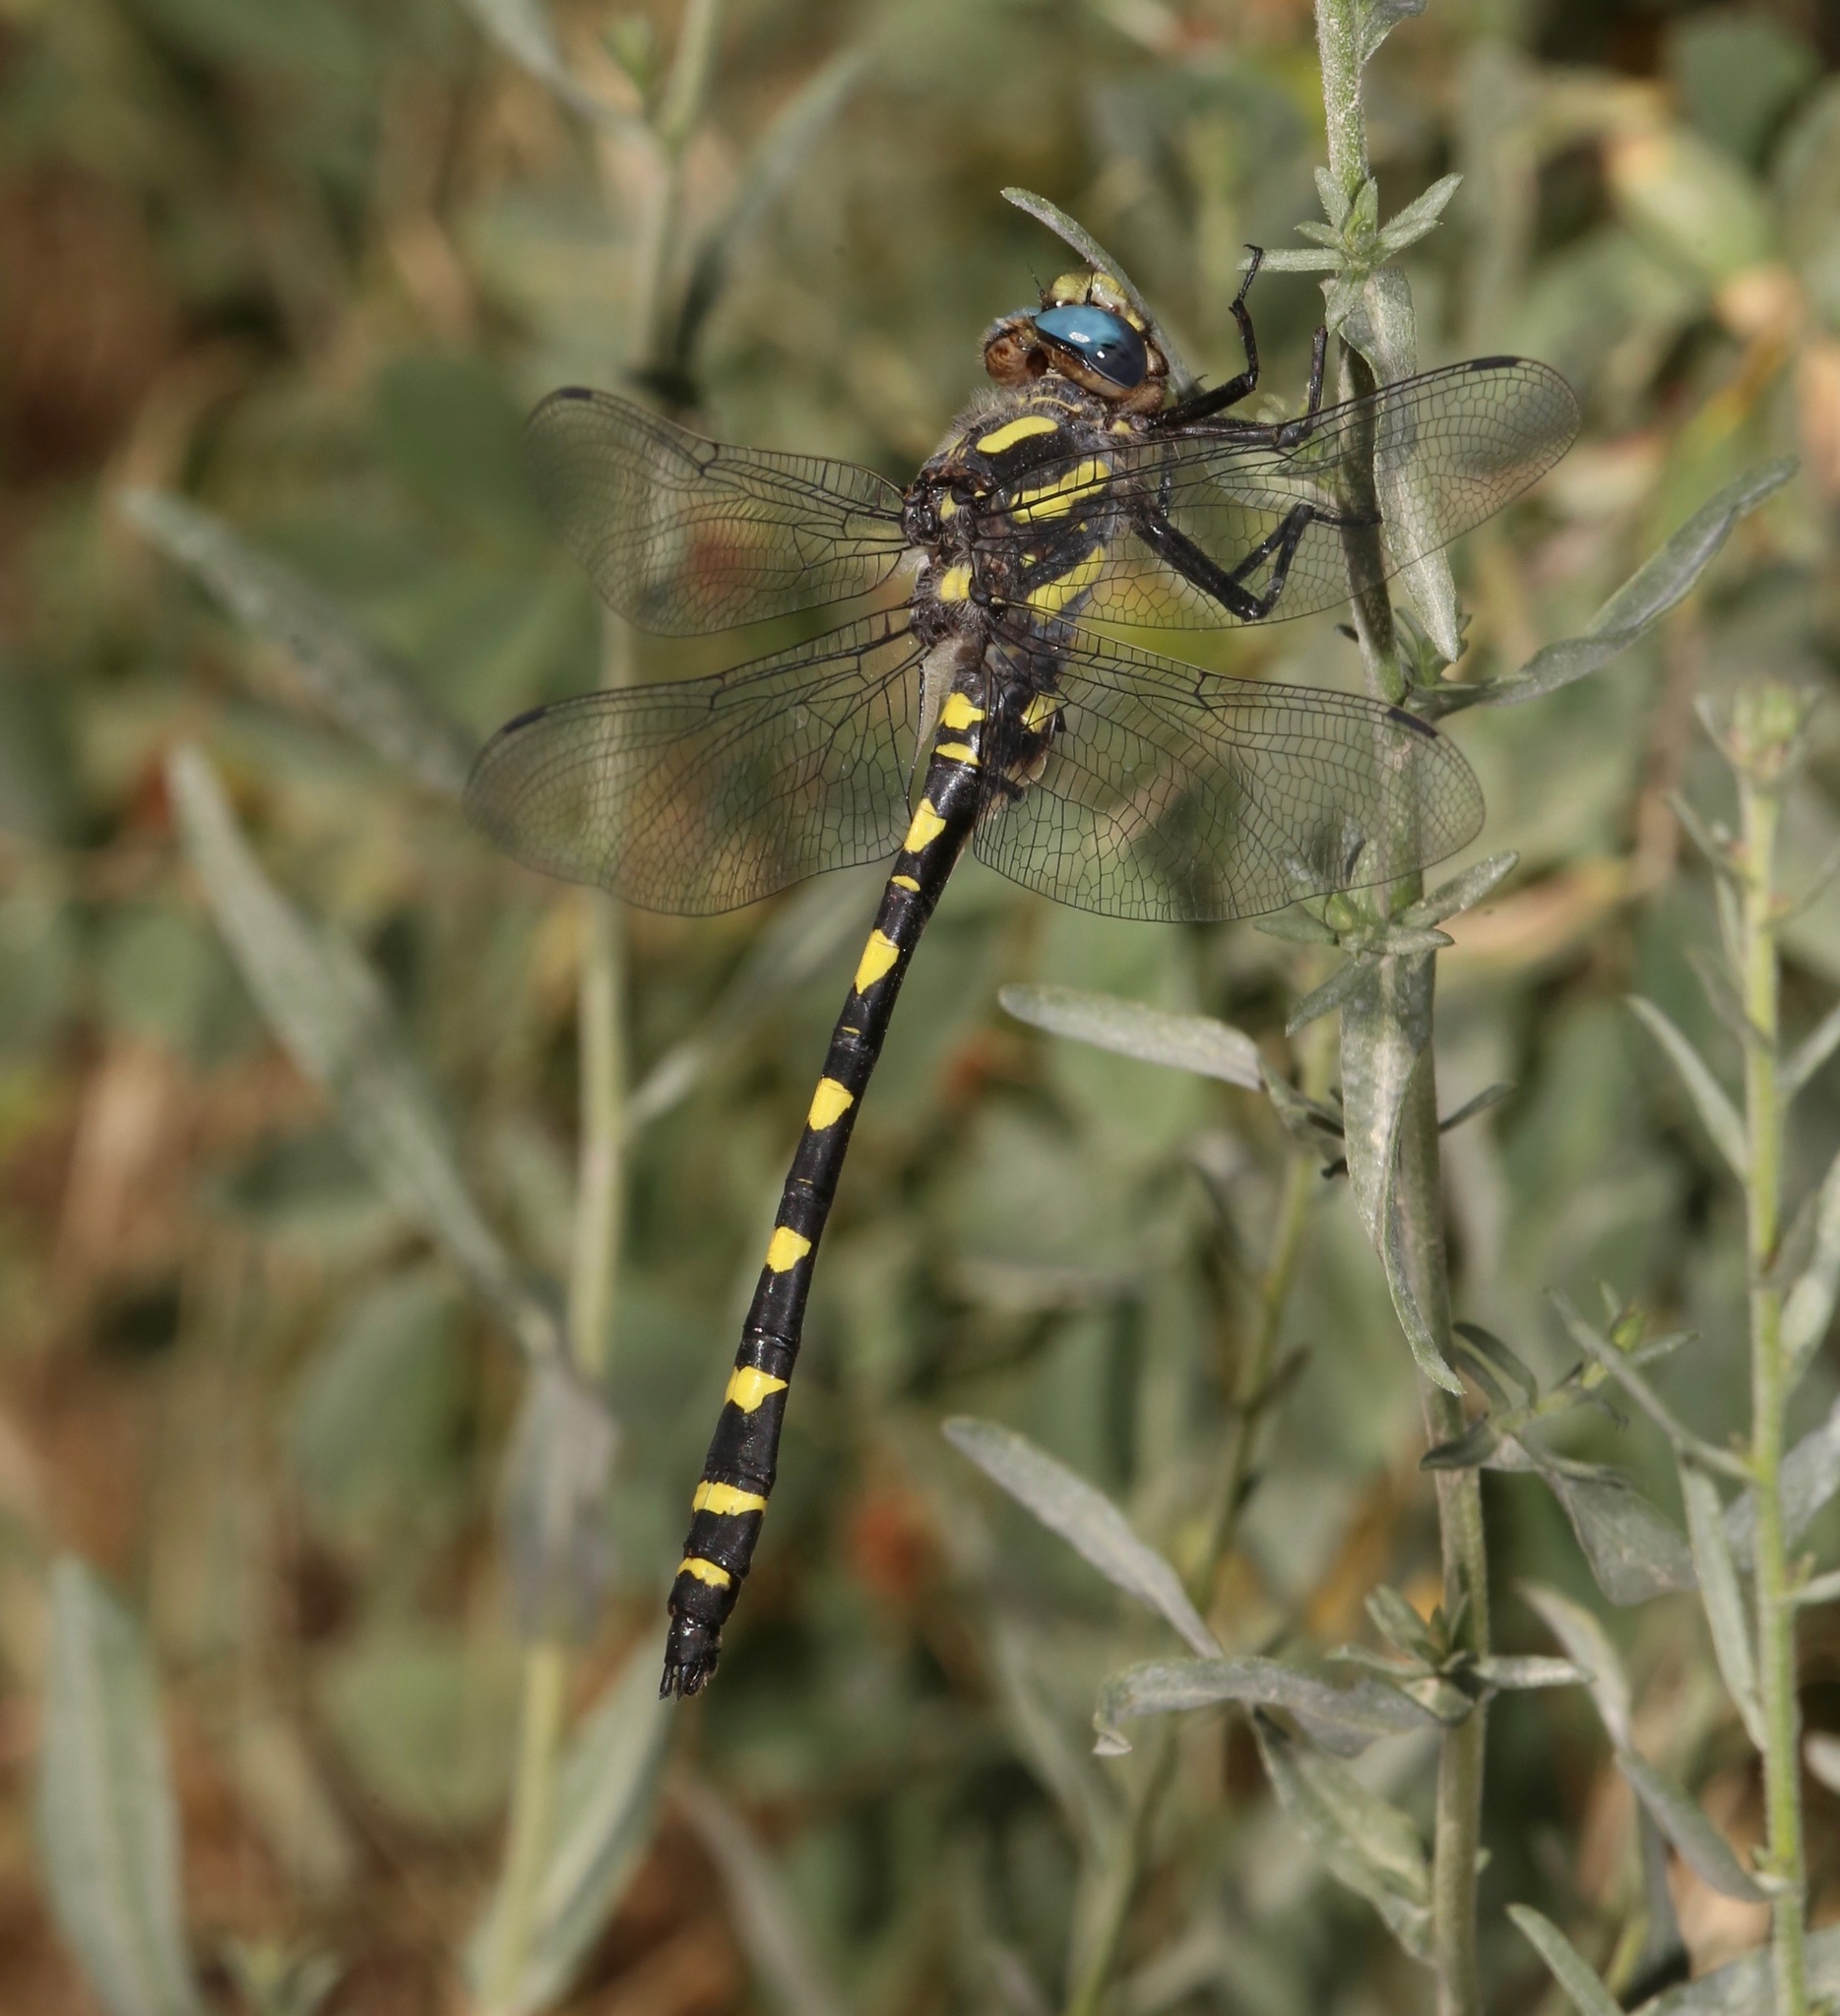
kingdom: Animalia
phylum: Arthropoda
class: Insecta
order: Odonata
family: Cordulegastridae
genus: Cordulegaster
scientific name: Cordulegaster dorsalis
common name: Pacific spiketail
